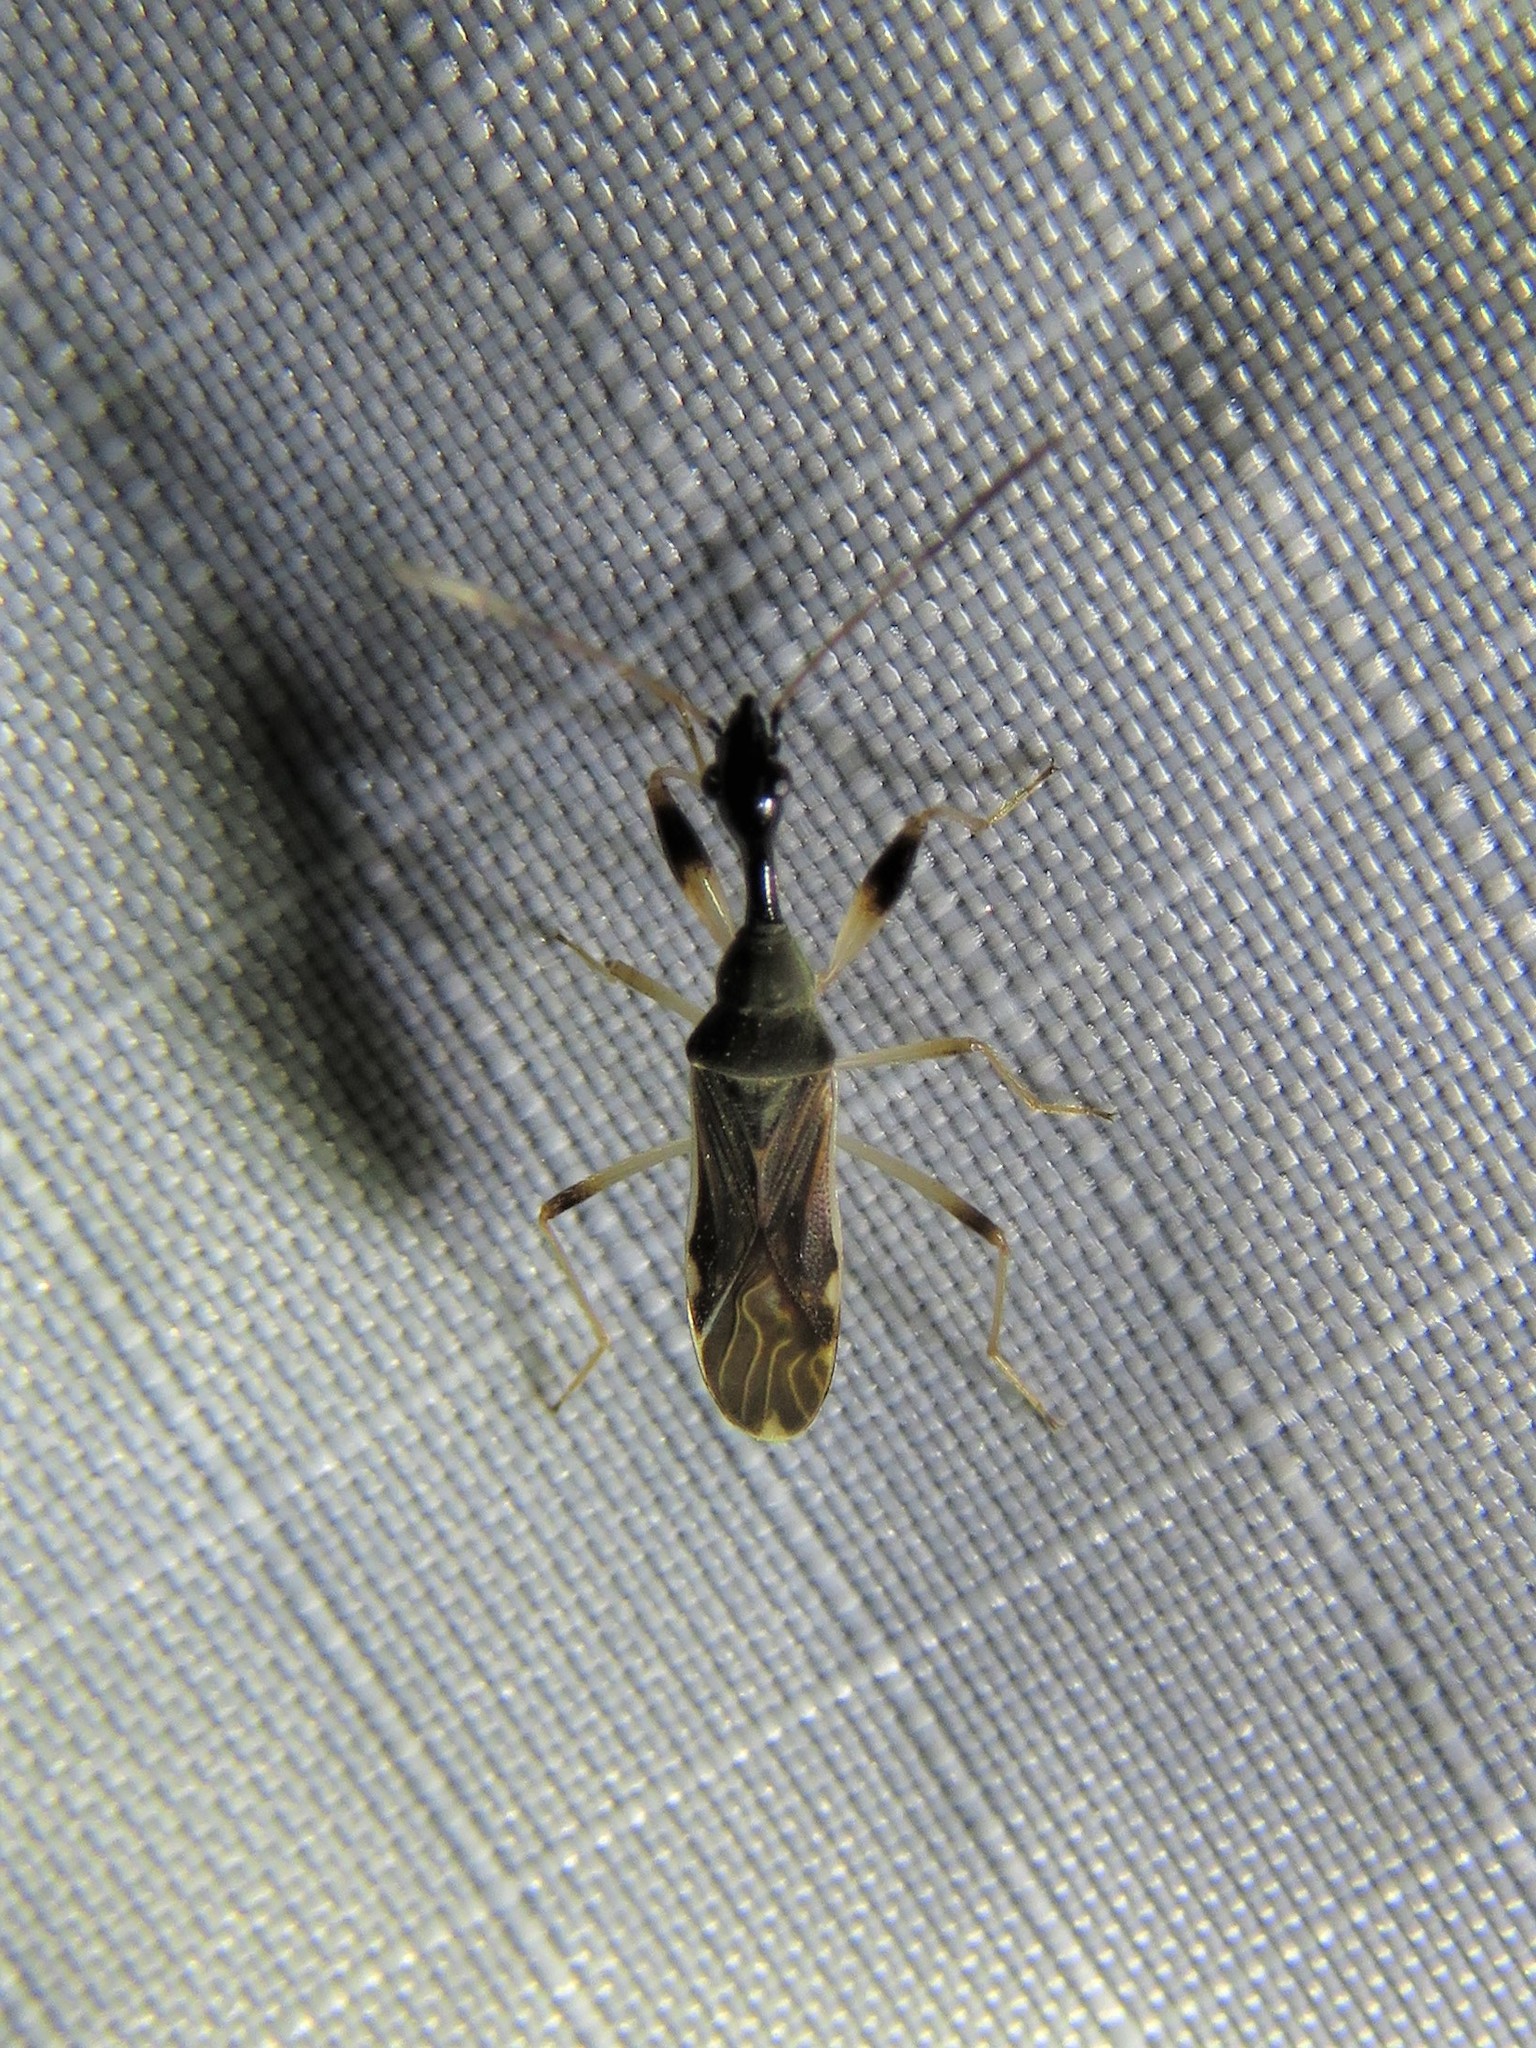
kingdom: Animalia
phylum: Arthropoda
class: Insecta
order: Hemiptera
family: Rhyparochromidae
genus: Myodocha
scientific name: Myodocha serripes
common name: Long-necked seed bug
